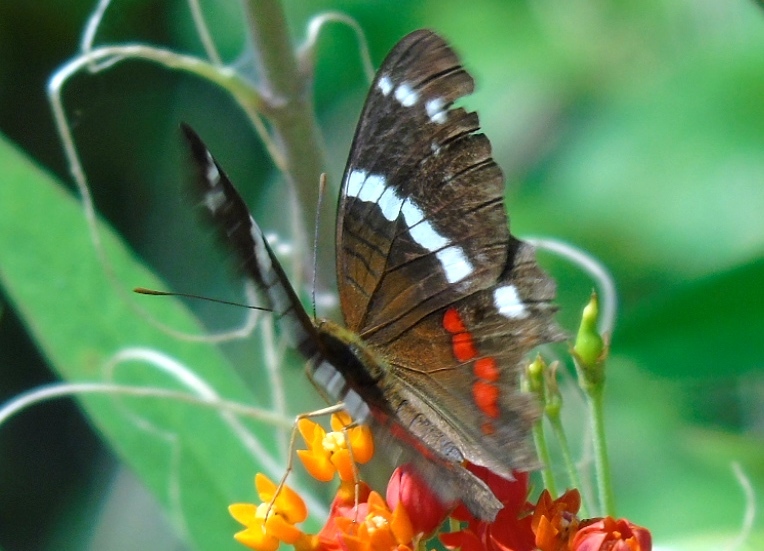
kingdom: Animalia
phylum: Arthropoda
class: Insecta
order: Lepidoptera
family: Nymphalidae
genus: Anartia
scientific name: Anartia fatima
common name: Banded peacock
